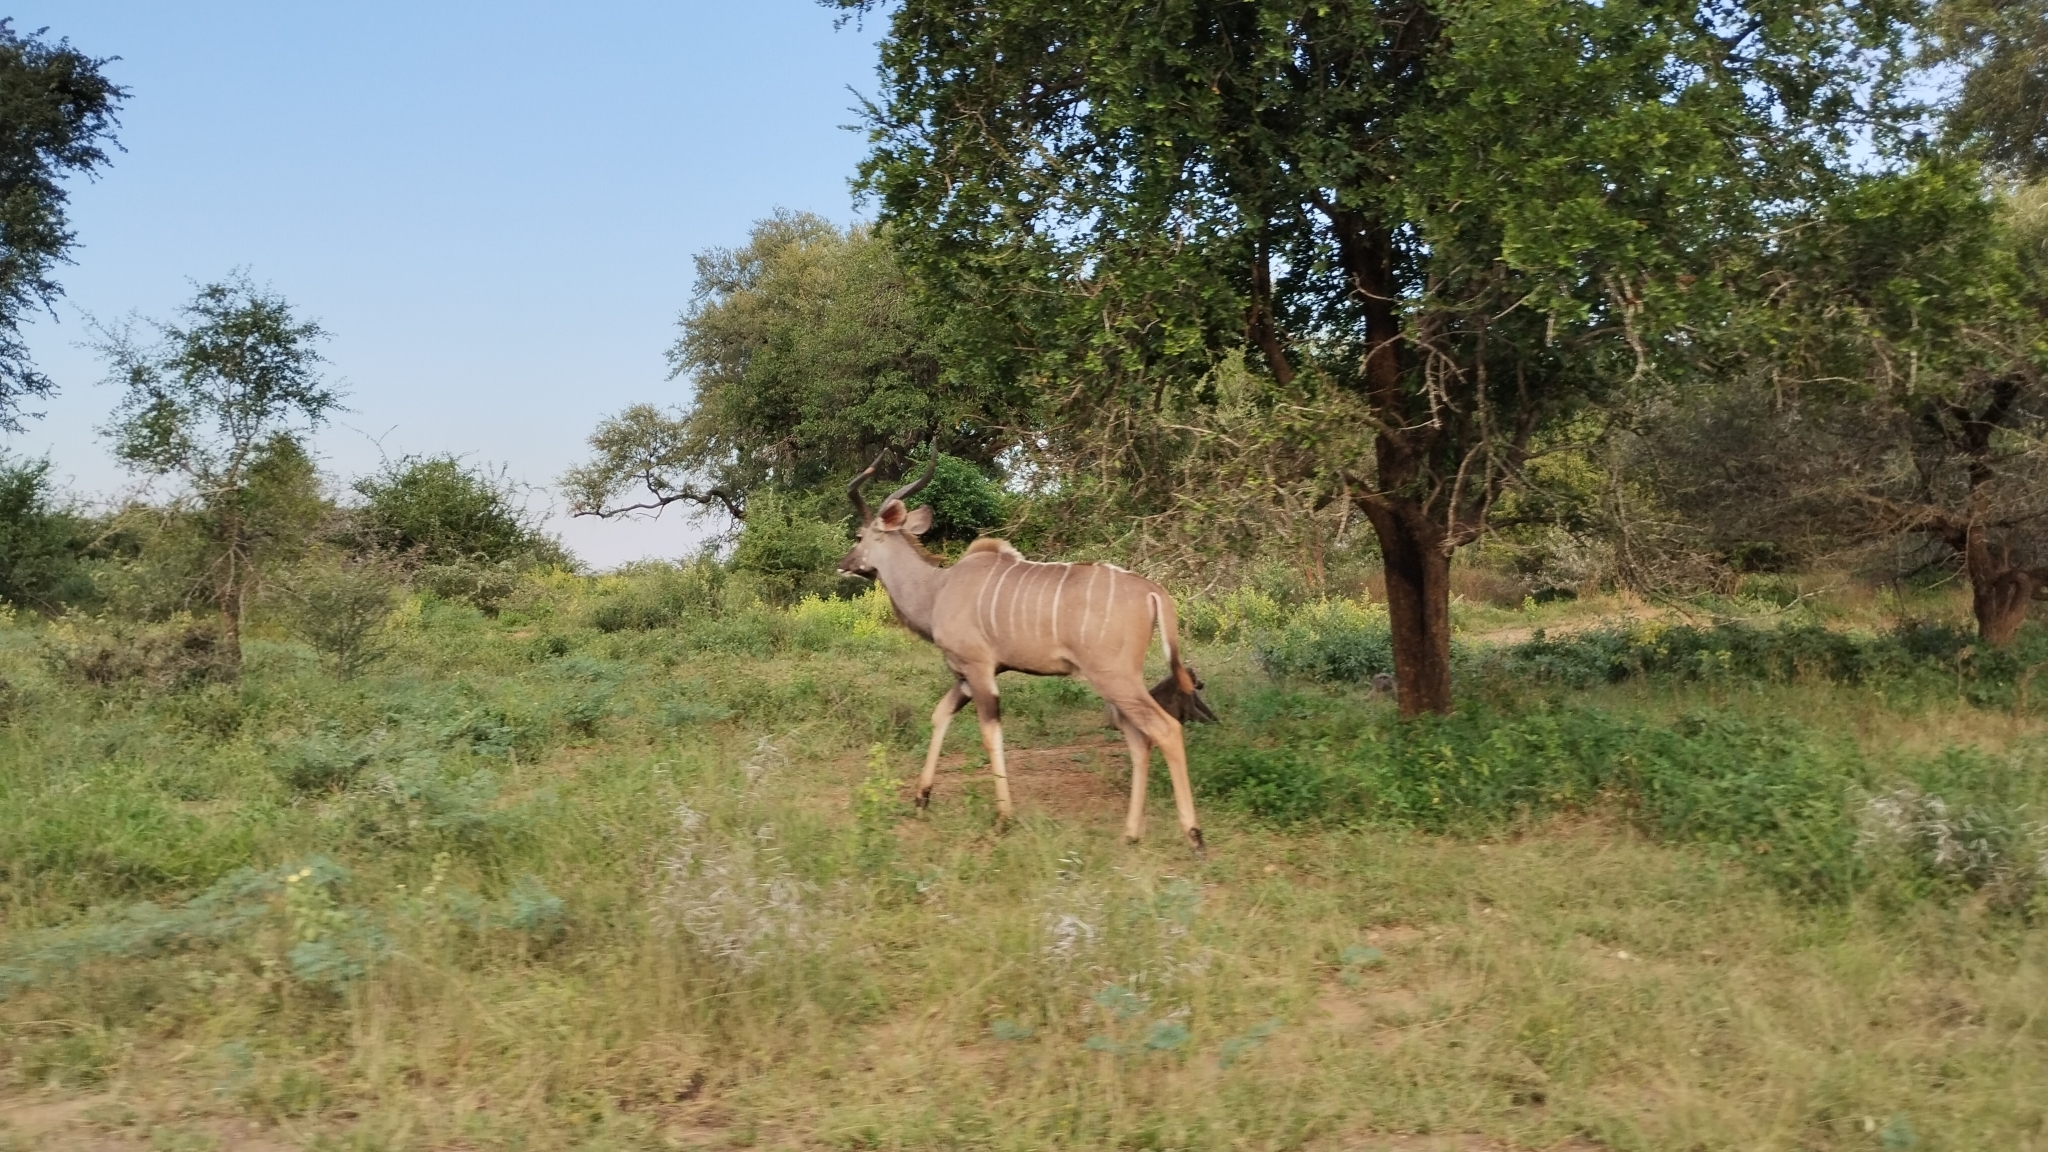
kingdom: Animalia
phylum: Chordata
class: Mammalia
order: Artiodactyla
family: Bovidae
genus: Tragelaphus
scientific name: Tragelaphus strepsiceros
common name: Greater kudu
